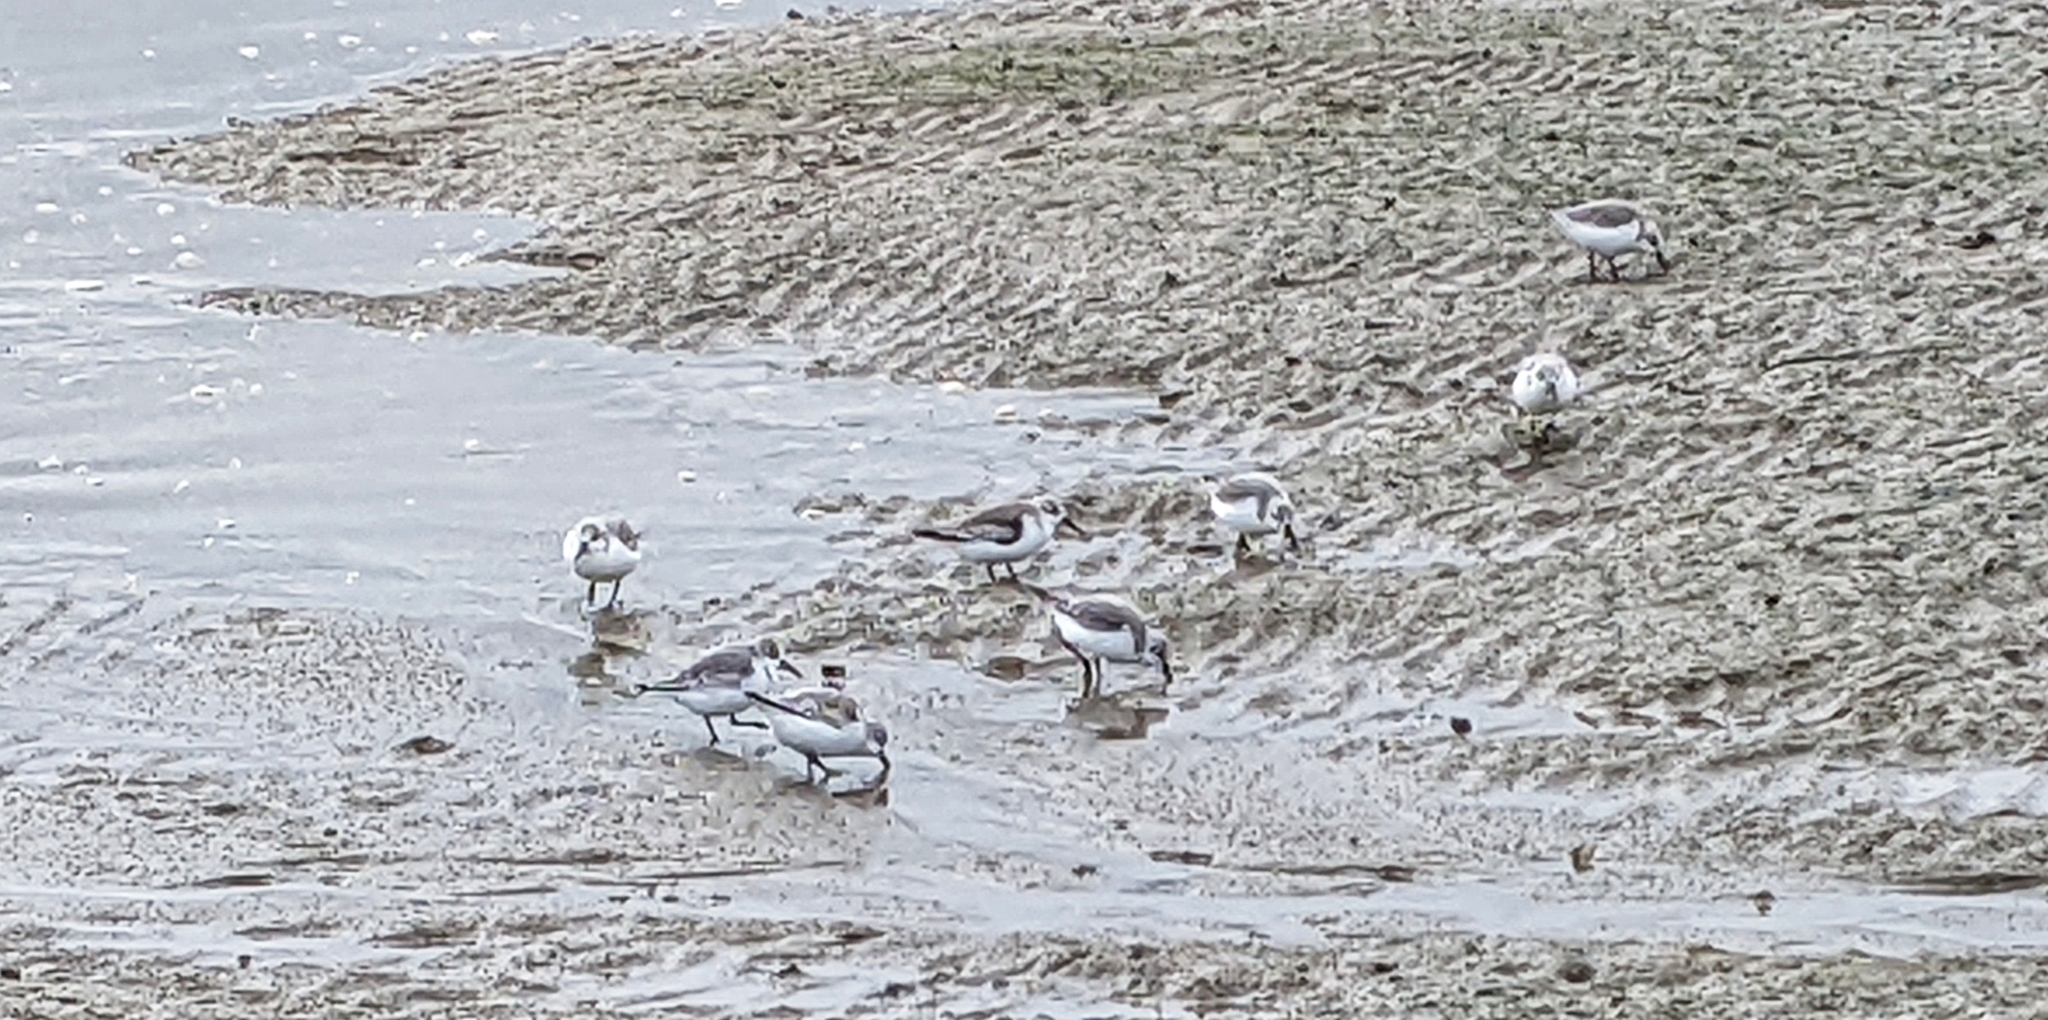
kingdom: Animalia
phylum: Chordata
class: Aves
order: Charadriiformes
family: Scolopacidae
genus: Calidris
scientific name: Calidris alba
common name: Sanderling
